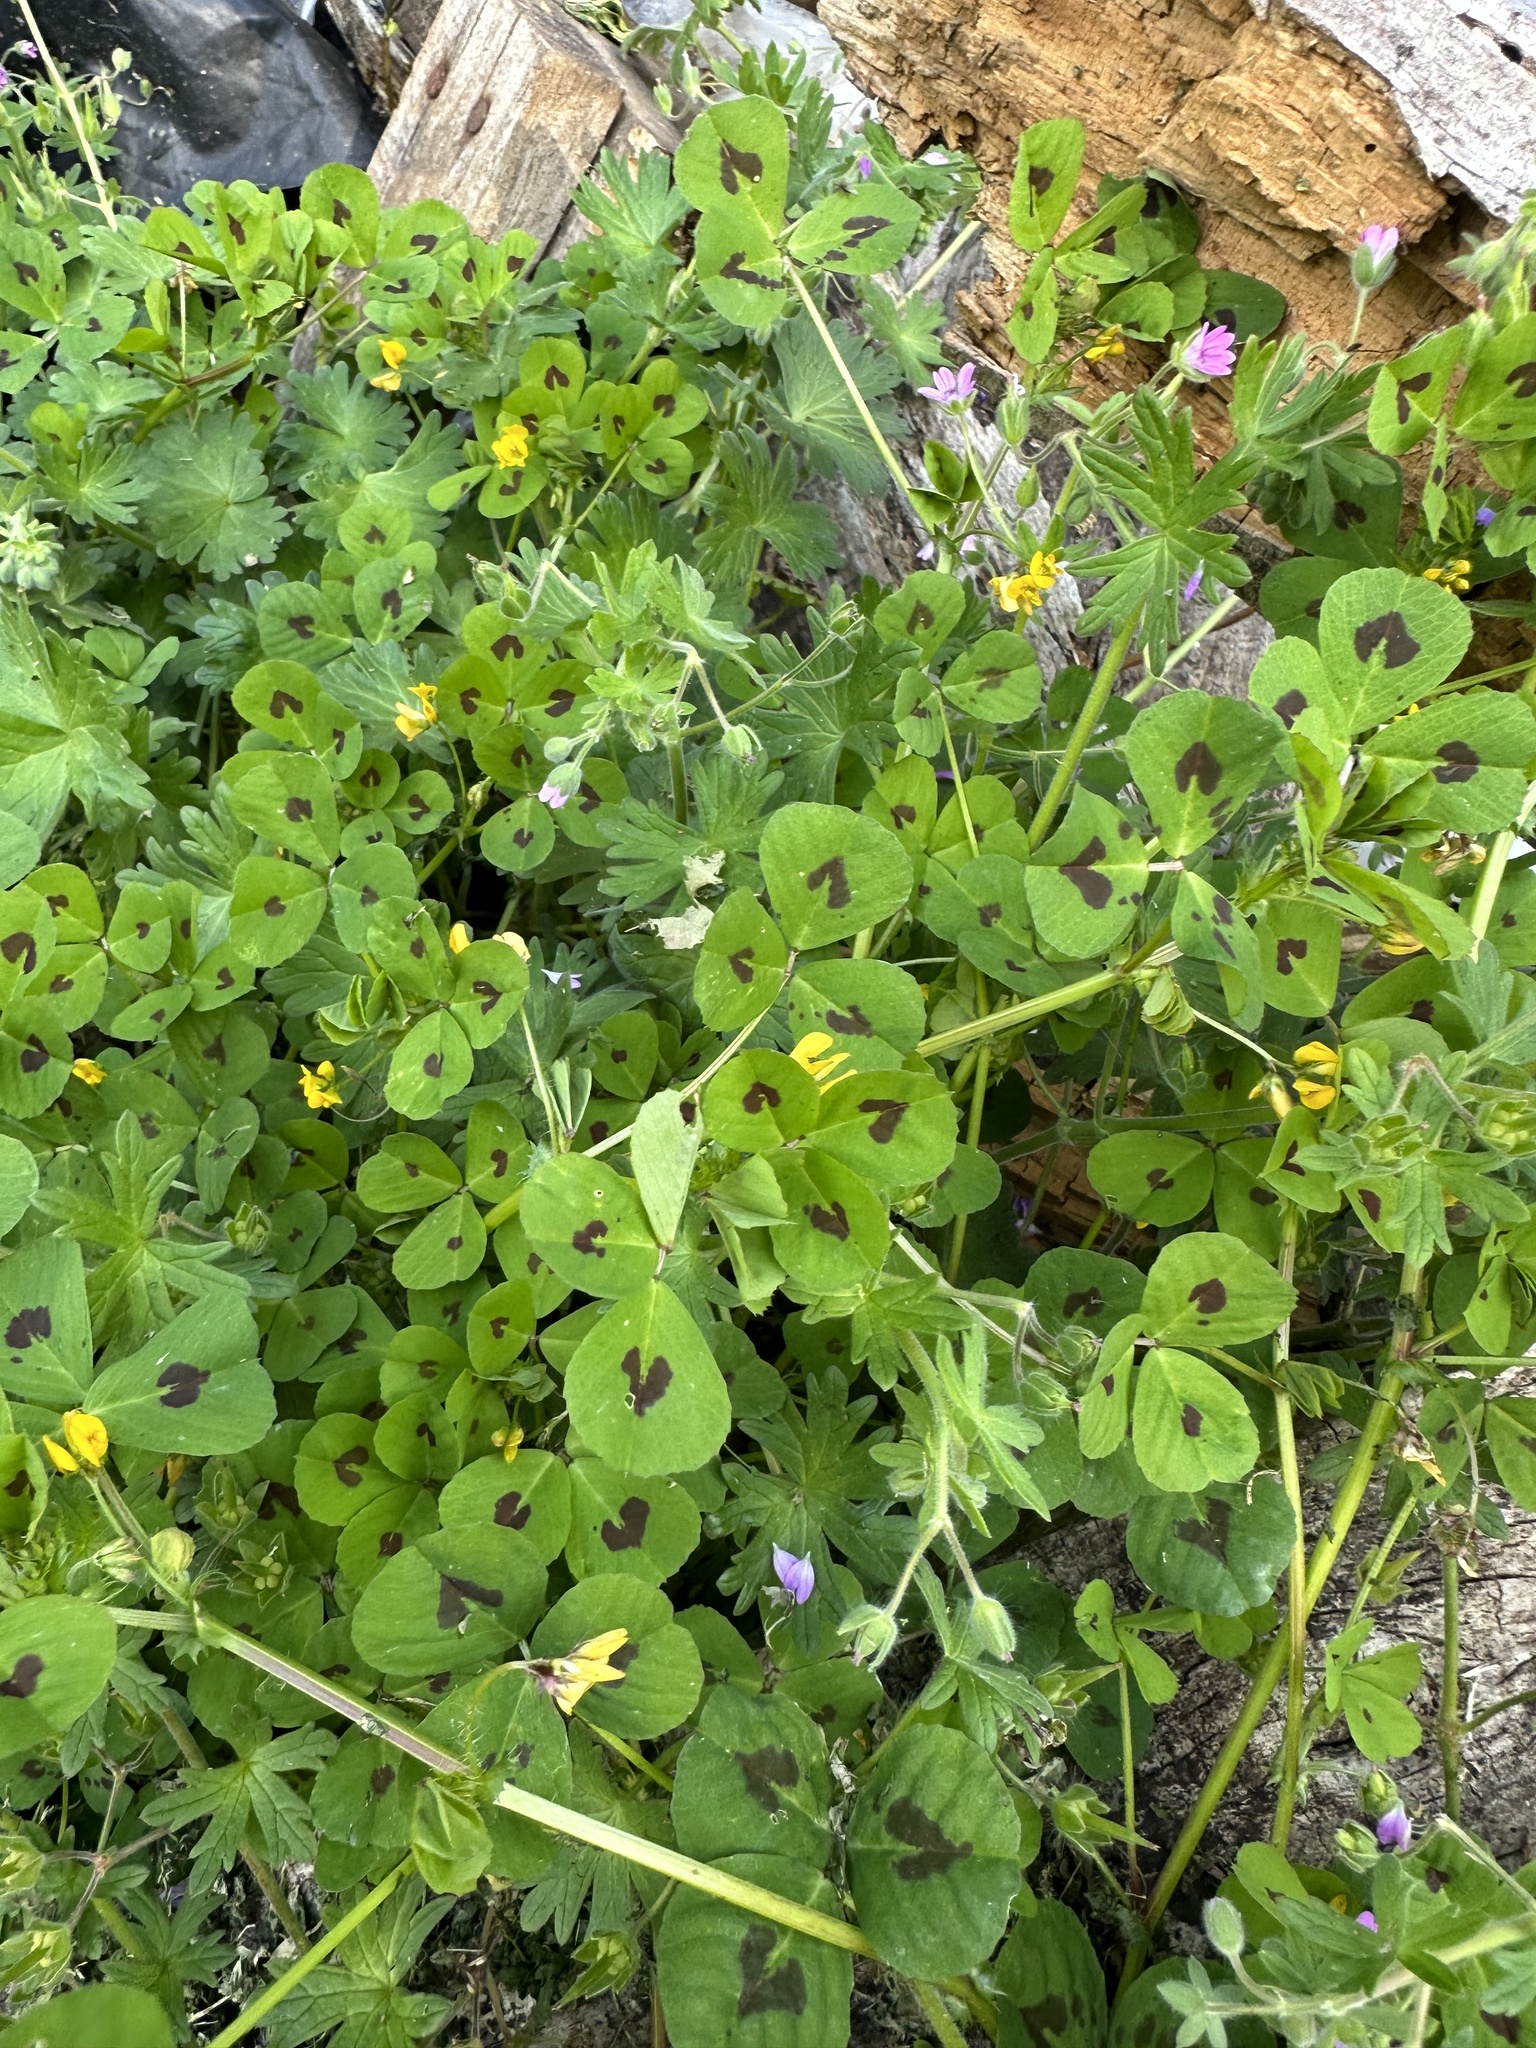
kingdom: Plantae
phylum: Tracheophyta
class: Magnoliopsida
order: Fabales
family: Fabaceae
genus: Medicago
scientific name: Medicago arabica
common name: Spotted medick
